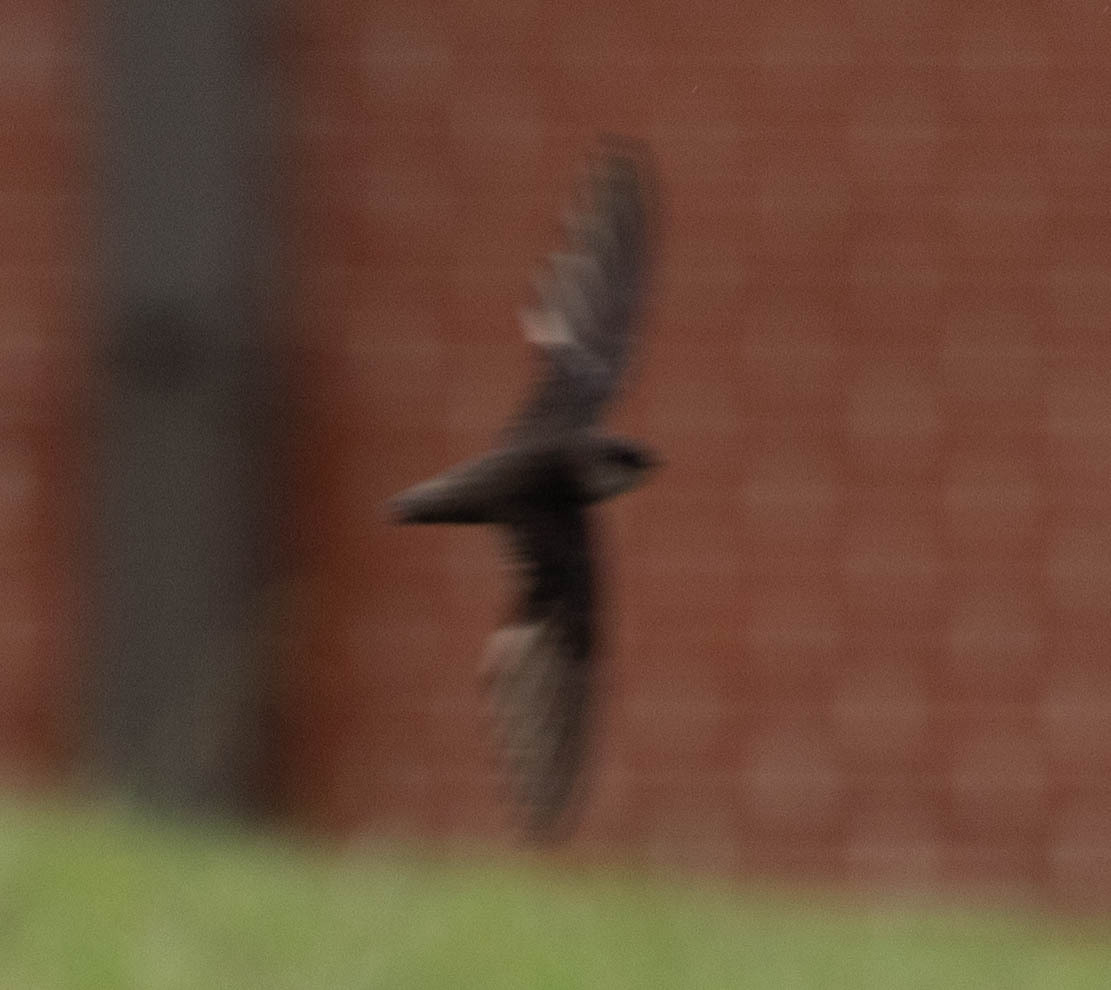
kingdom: Animalia
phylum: Chordata
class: Aves
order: Apodiformes
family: Apodidae
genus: Chaetura
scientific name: Chaetura pelagica
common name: Chimney swift
